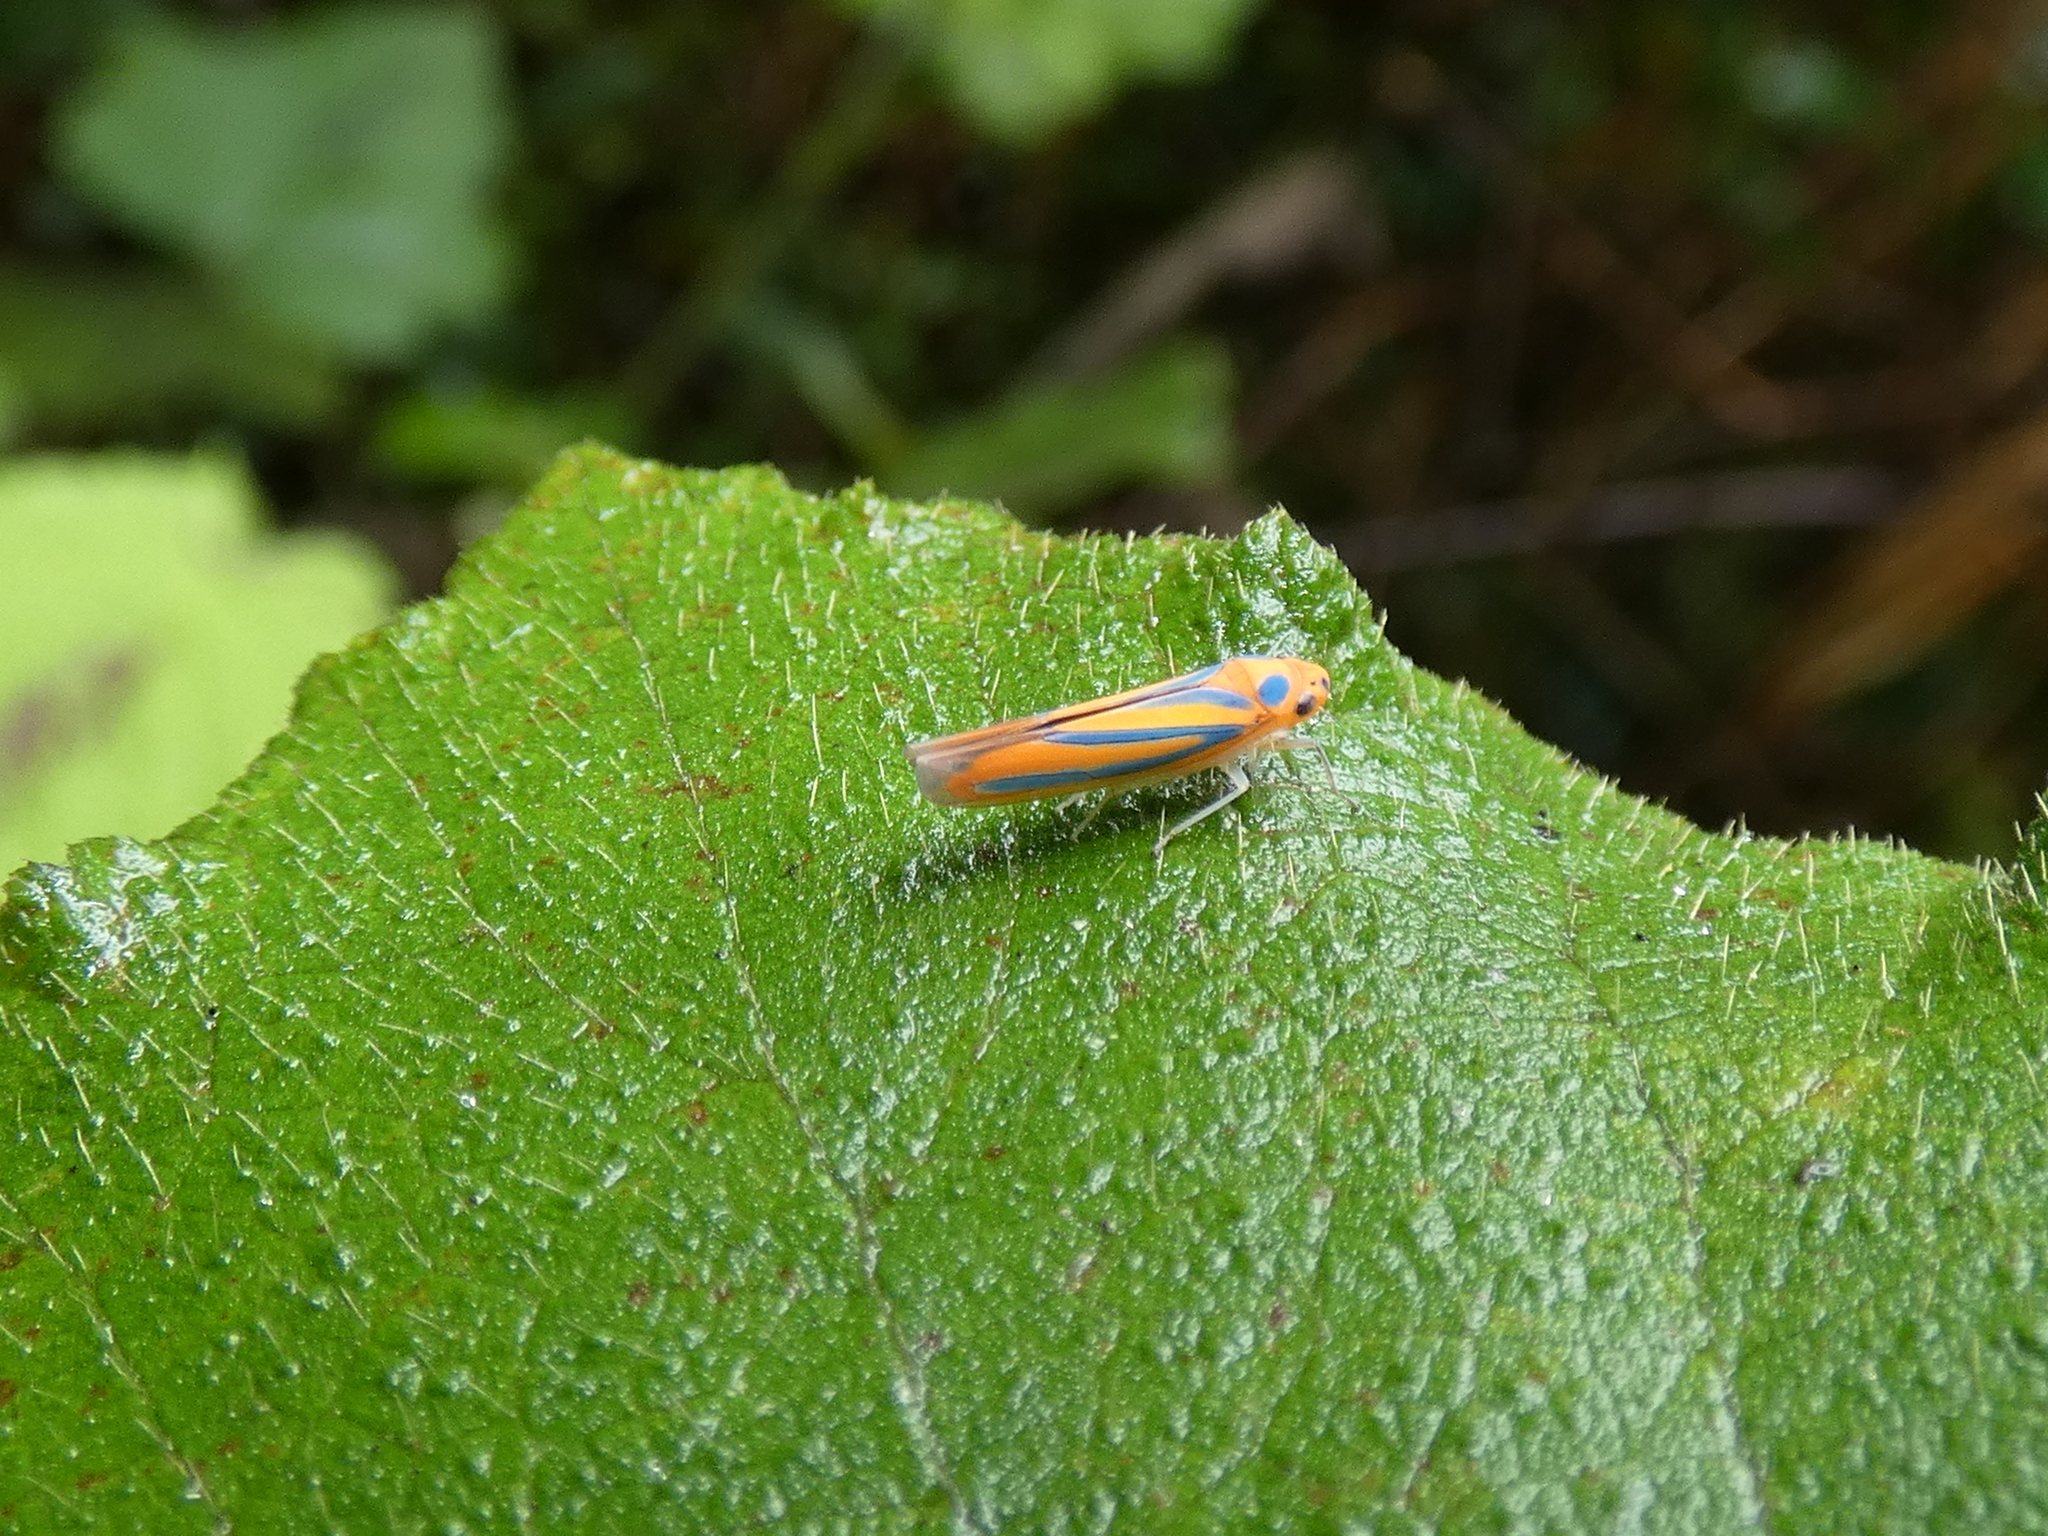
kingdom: Animalia
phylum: Arthropoda
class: Insecta
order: Hemiptera
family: Cicadellidae
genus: Madranga
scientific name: Madranga segnita
